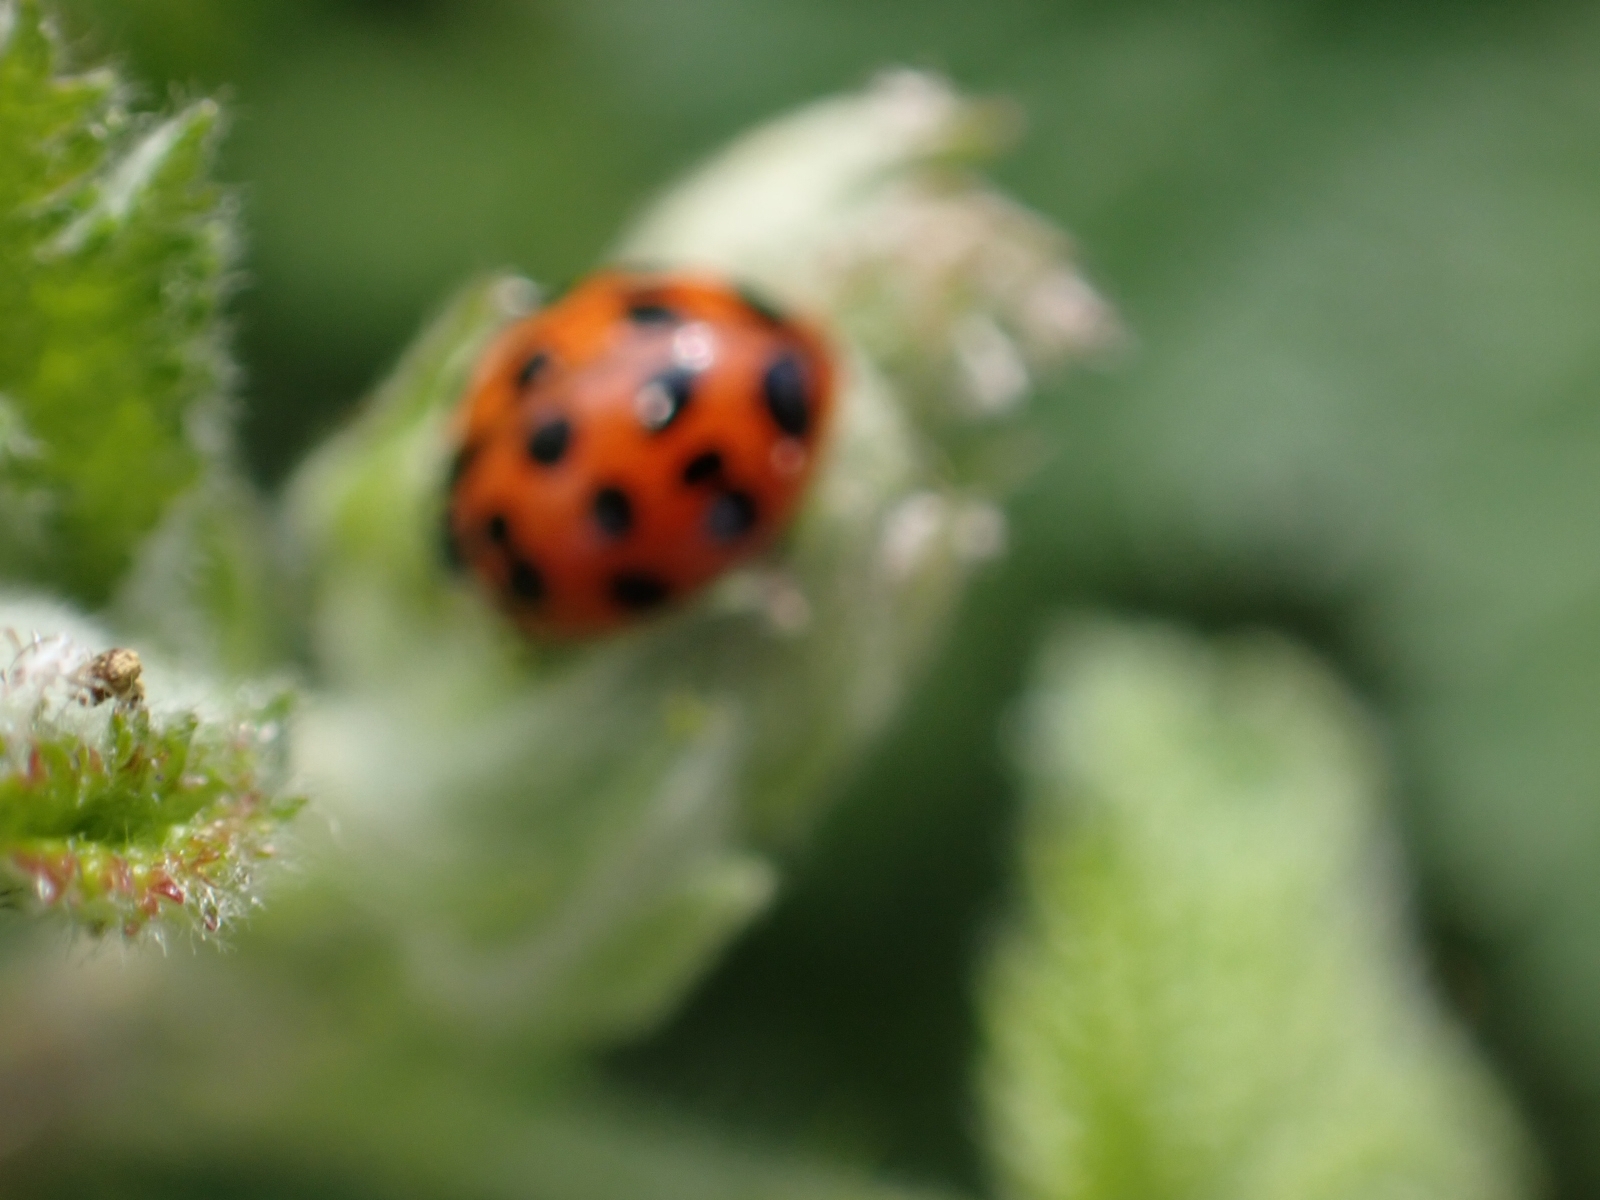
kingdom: Animalia
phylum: Arthropoda
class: Insecta
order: Coleoptera
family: Coccinellidae
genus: Harmonia
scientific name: Harmonia axyridis
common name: Harlequin ladybird
